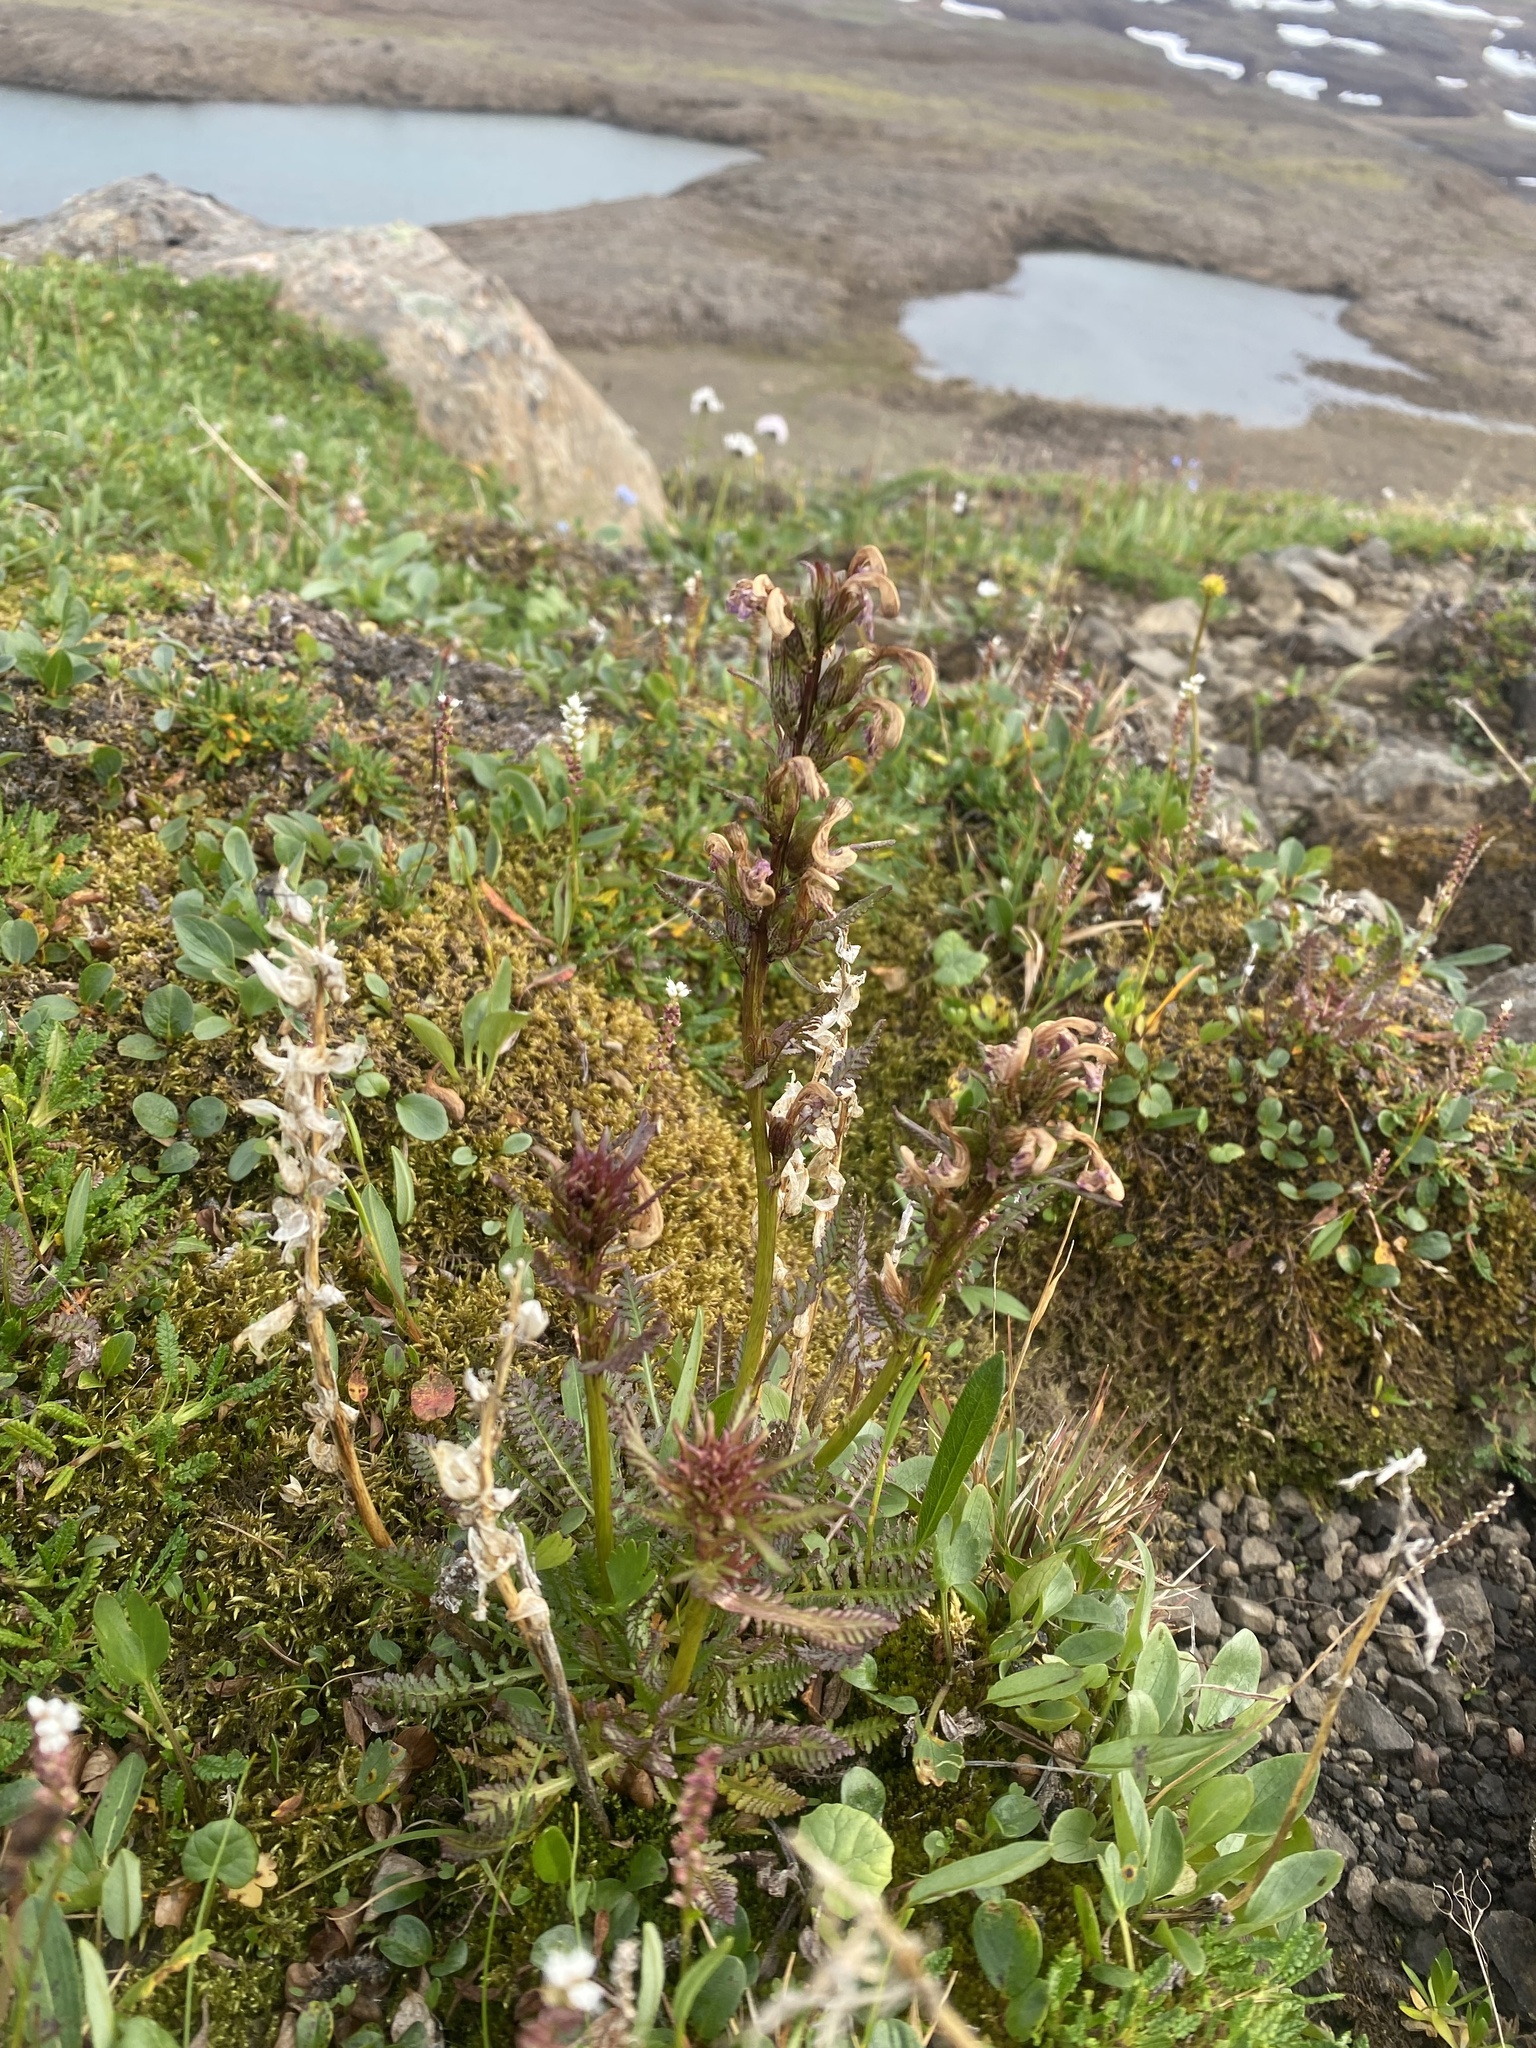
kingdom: Plantae
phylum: Tracheophyta
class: Magnoliopsida
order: Lamiales
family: Orobanchaceae
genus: Pedicularis
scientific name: Pedicularis interior
